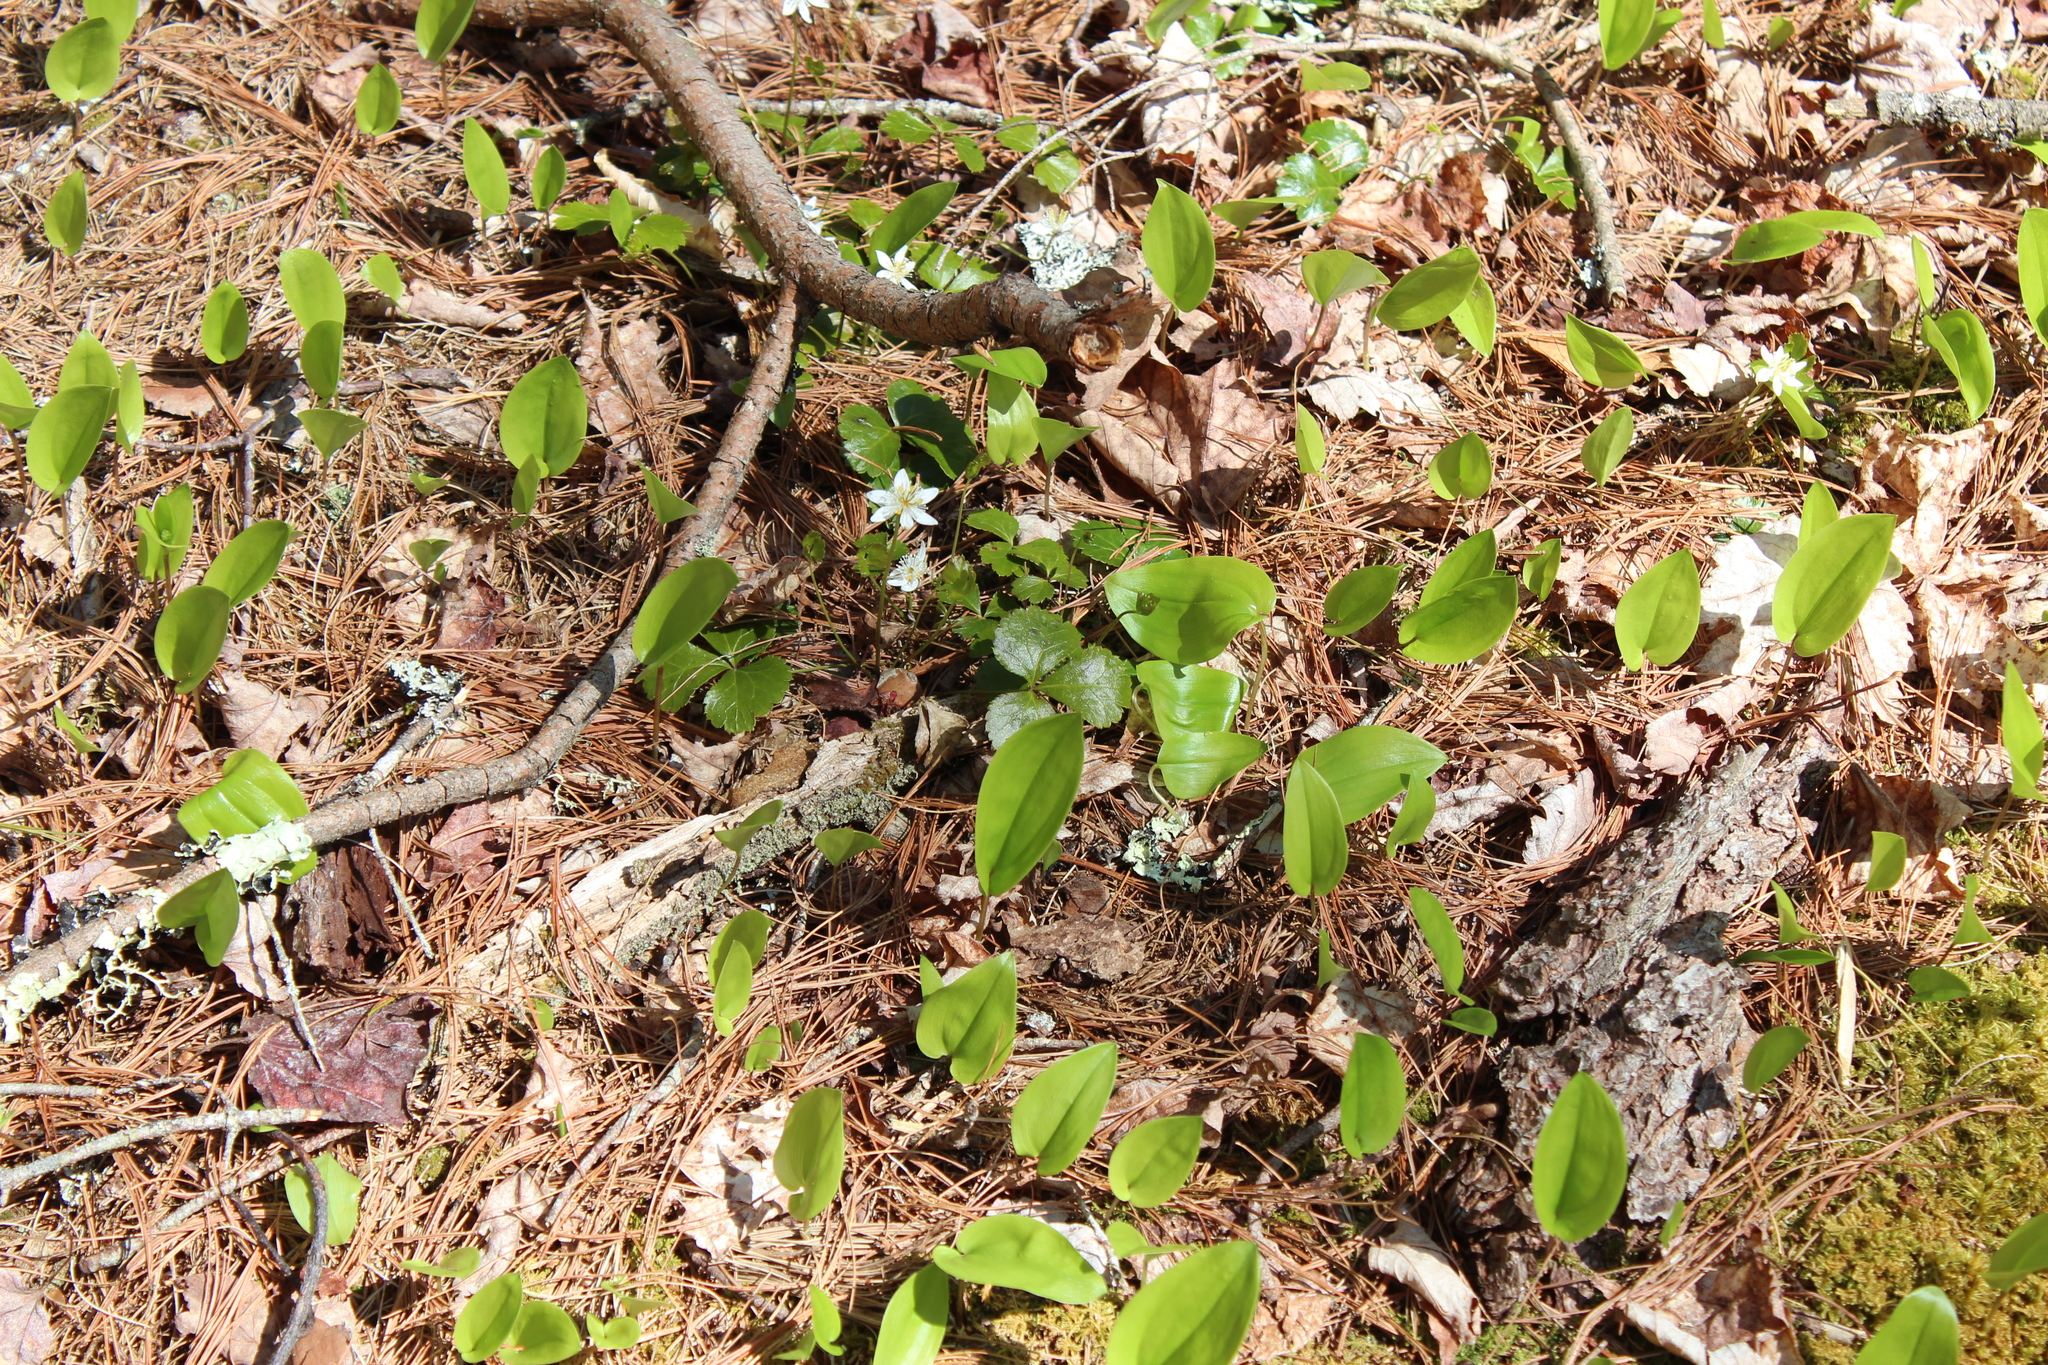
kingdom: Plantae
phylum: Tracheophyta
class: Liliopsida
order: Asparagales
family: Asparagaceae
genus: Maianthemum
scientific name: Maianthemum canadense
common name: False lily-of-the-valley
